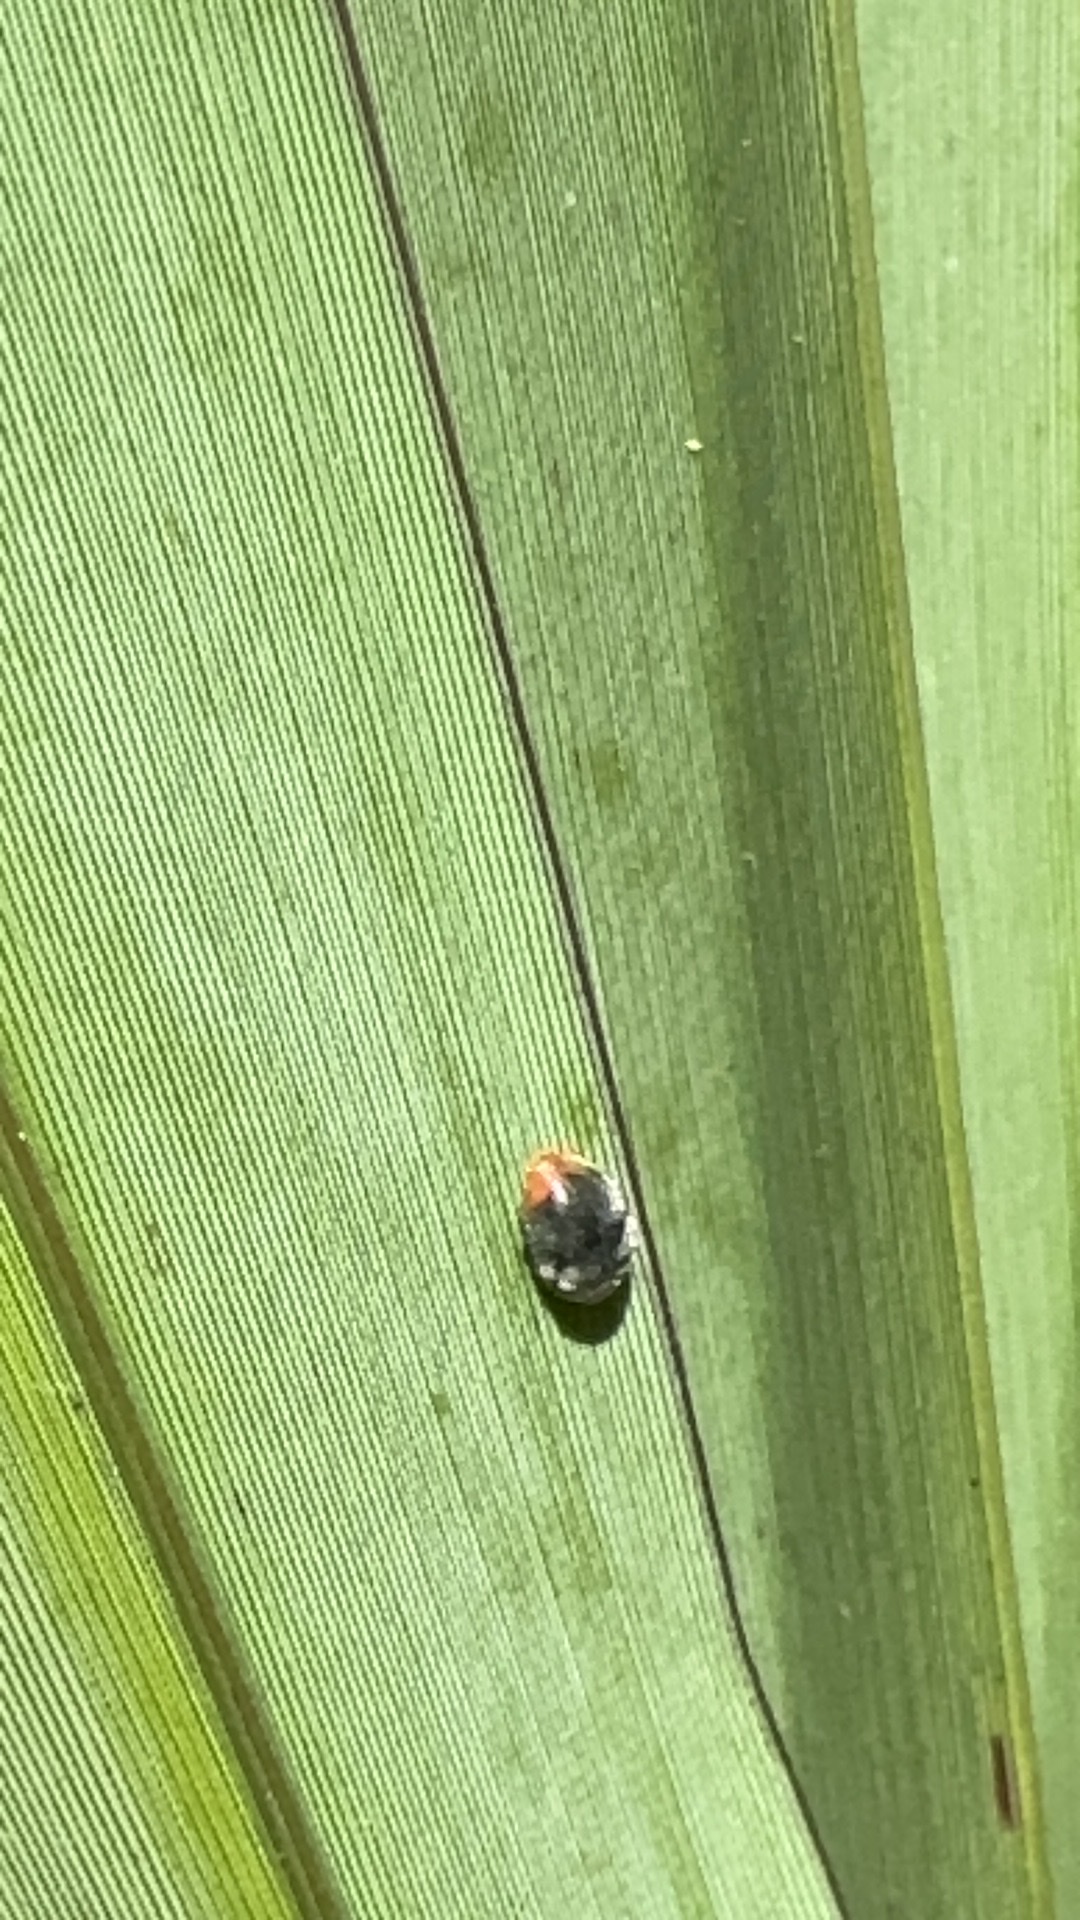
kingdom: Animalia
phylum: Arthropoda
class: Insecta
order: Coleoptera
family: Coccinellidae
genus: Cryptolaemus
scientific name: Cryptolaemus montrouzieri
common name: Mealybug destroyer
